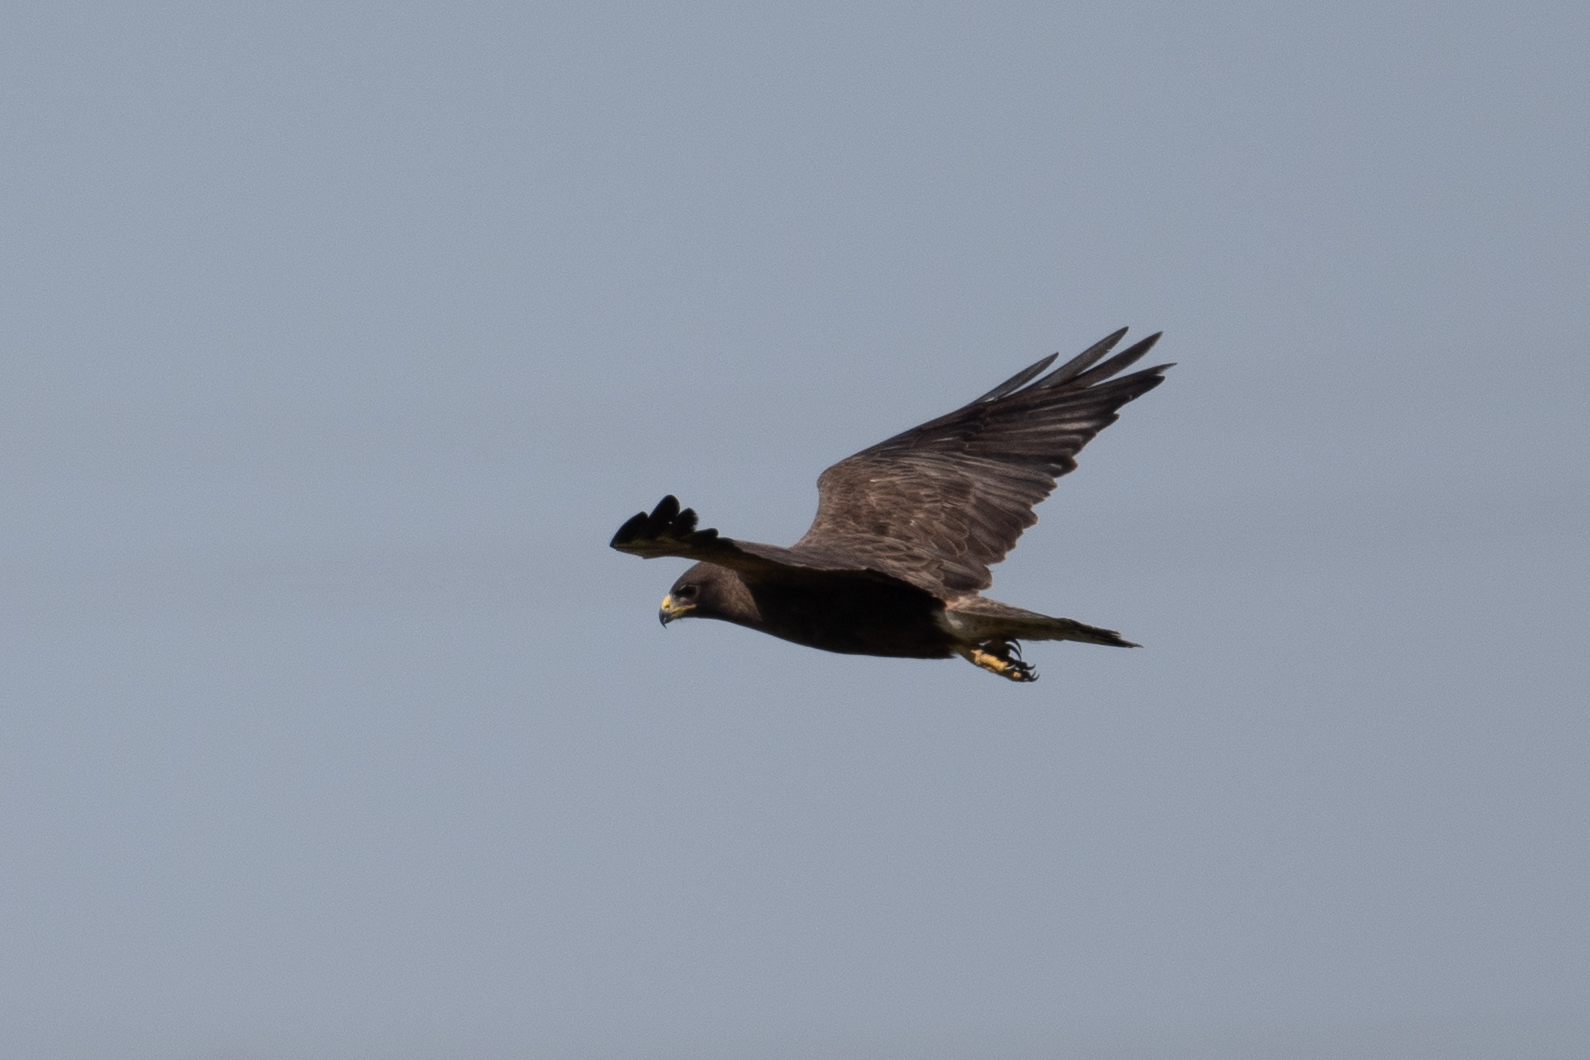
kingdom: Animalia
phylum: Chordata
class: Aves
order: Accipitriformes
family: Accipitridae
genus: Buteo
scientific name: Buteo swainsoni
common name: Swainson's hawk
